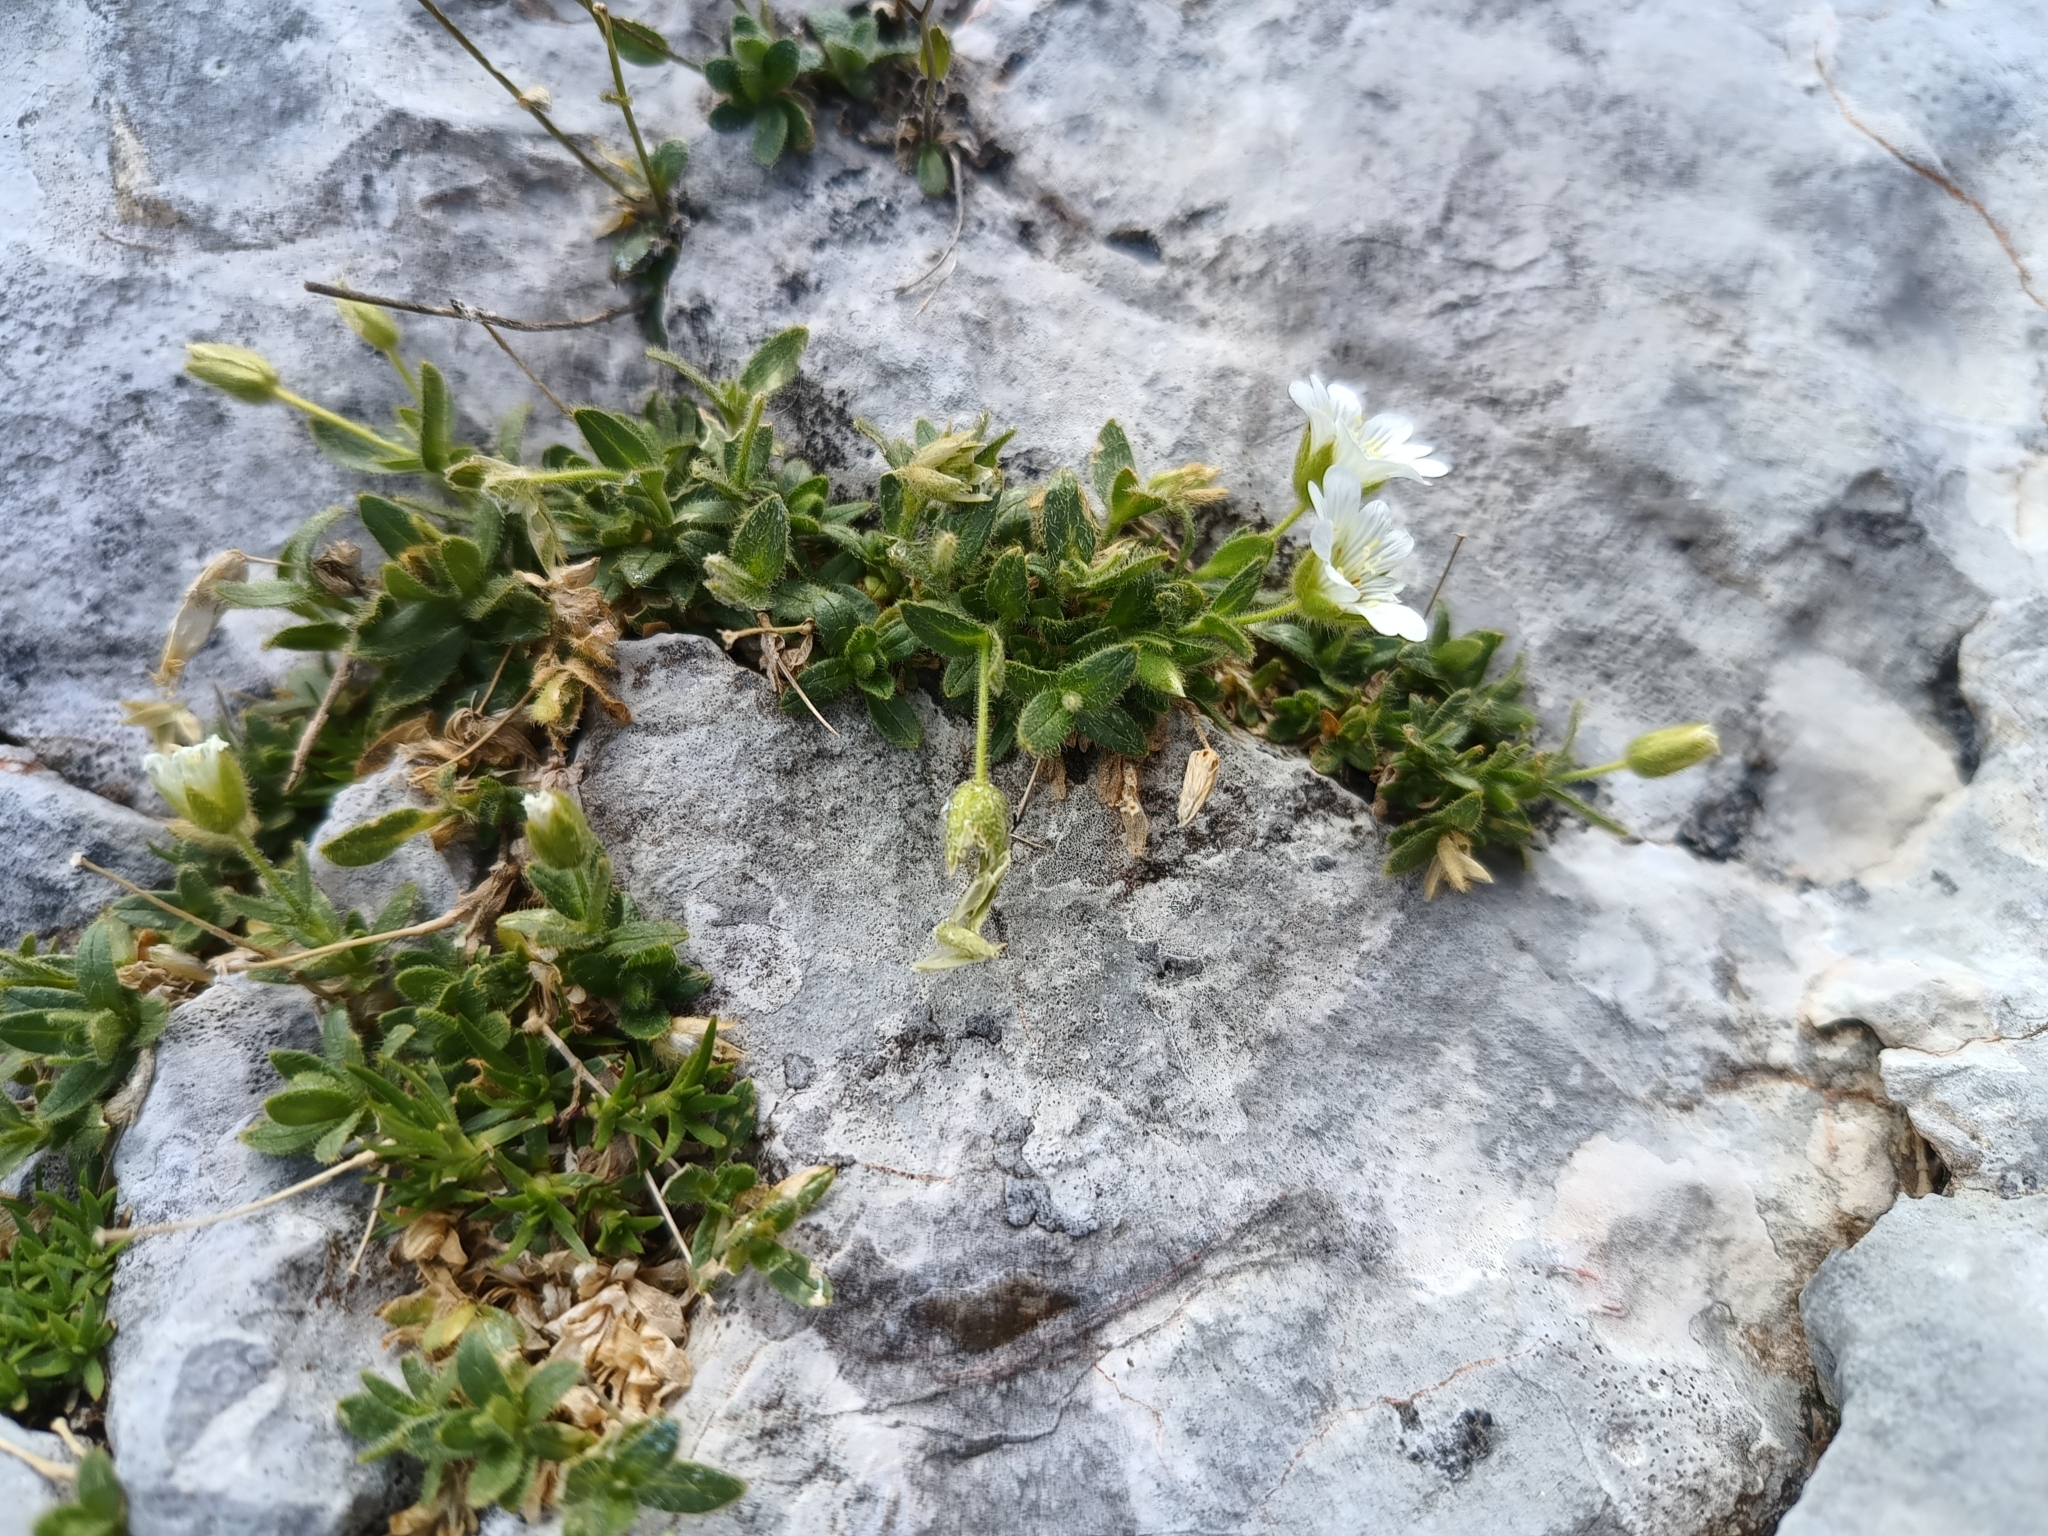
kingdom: Plantae
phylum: Tracheophyta
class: Magnoliopsida
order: Caryophyllales
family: Caryophyllaceae
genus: Cerastium
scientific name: Cerastium uniflorum
